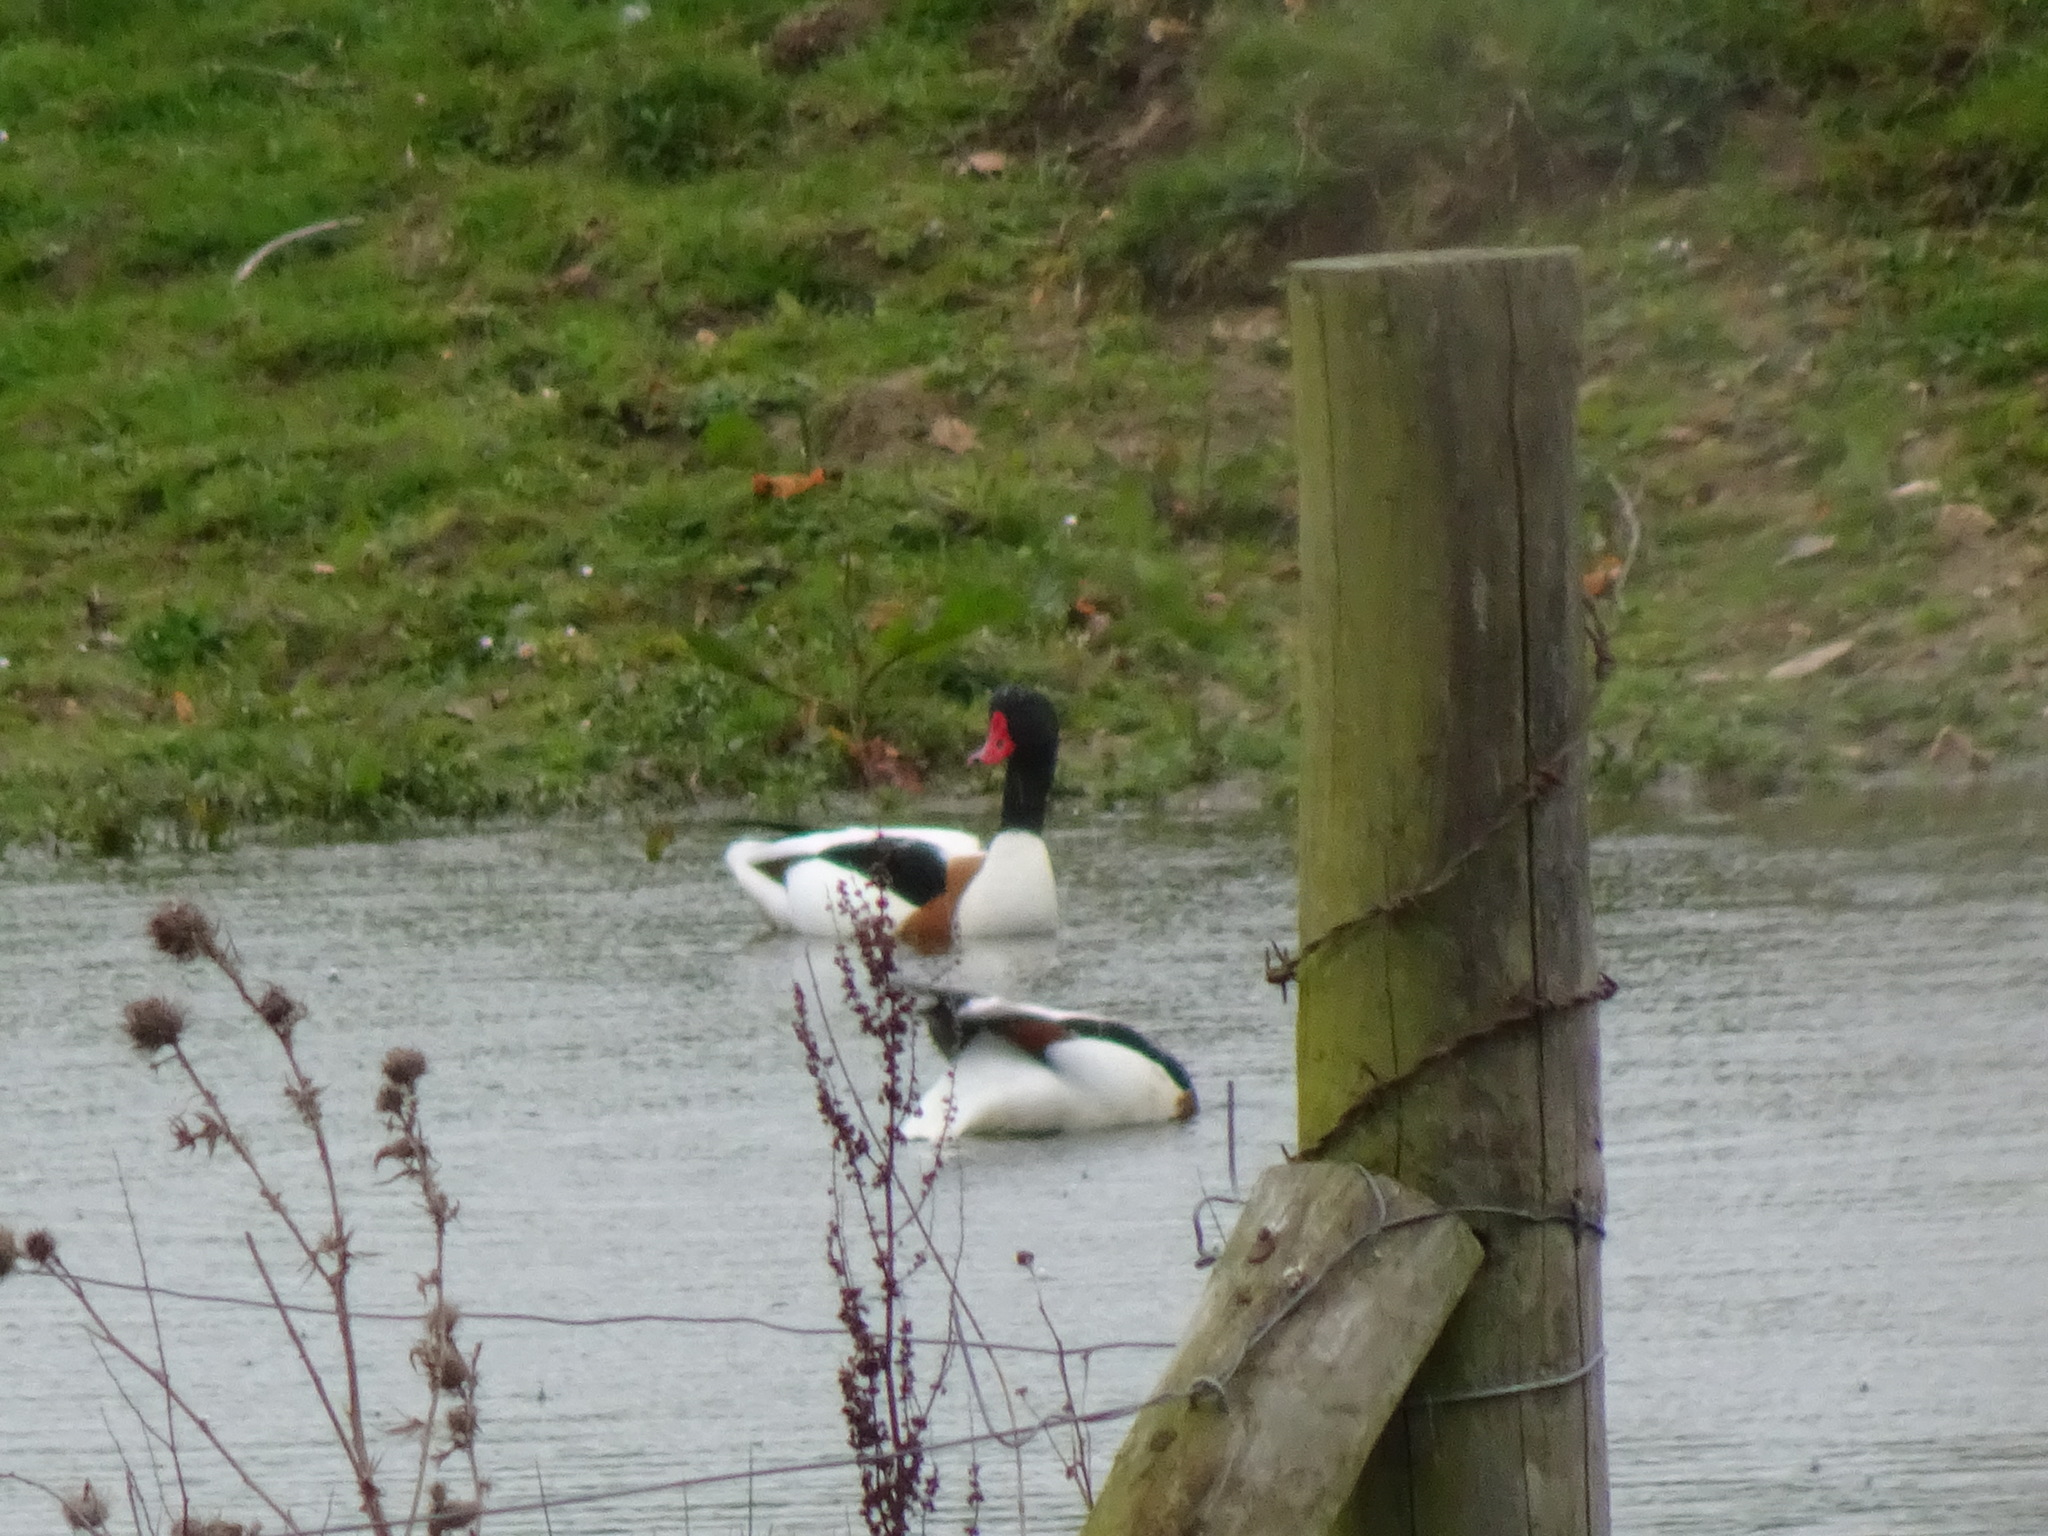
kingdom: Animalia
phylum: Chordata
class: Aves
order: Anseriformes
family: Anatidae
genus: Tadorna
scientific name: Tadorna tadorna
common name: Common shelduck
